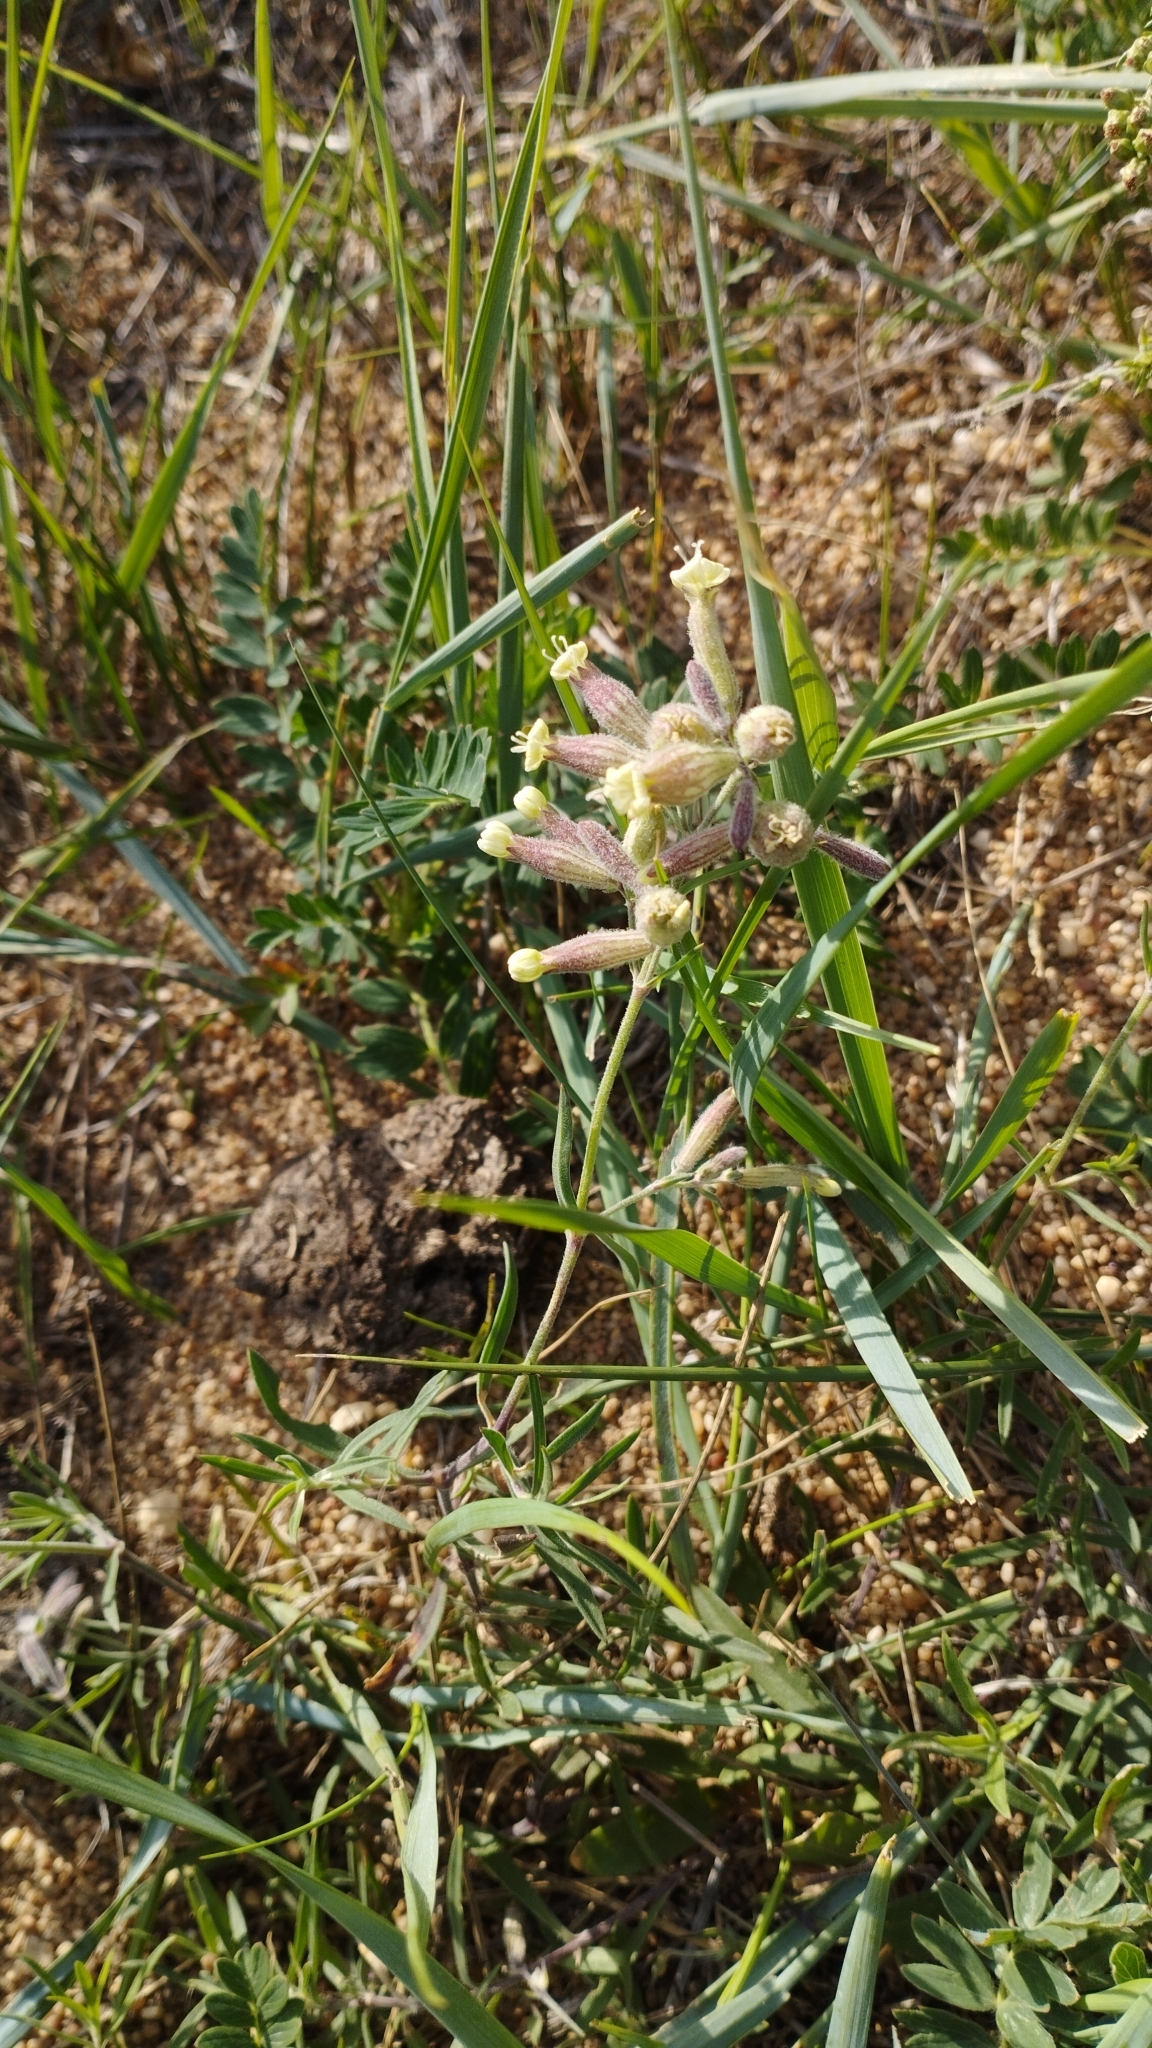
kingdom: Plantae
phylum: Tracheophyta
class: Magnoliopsida
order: Caryophyllales
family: Caryophyllaceae
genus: Silene
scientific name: Silene amoena
